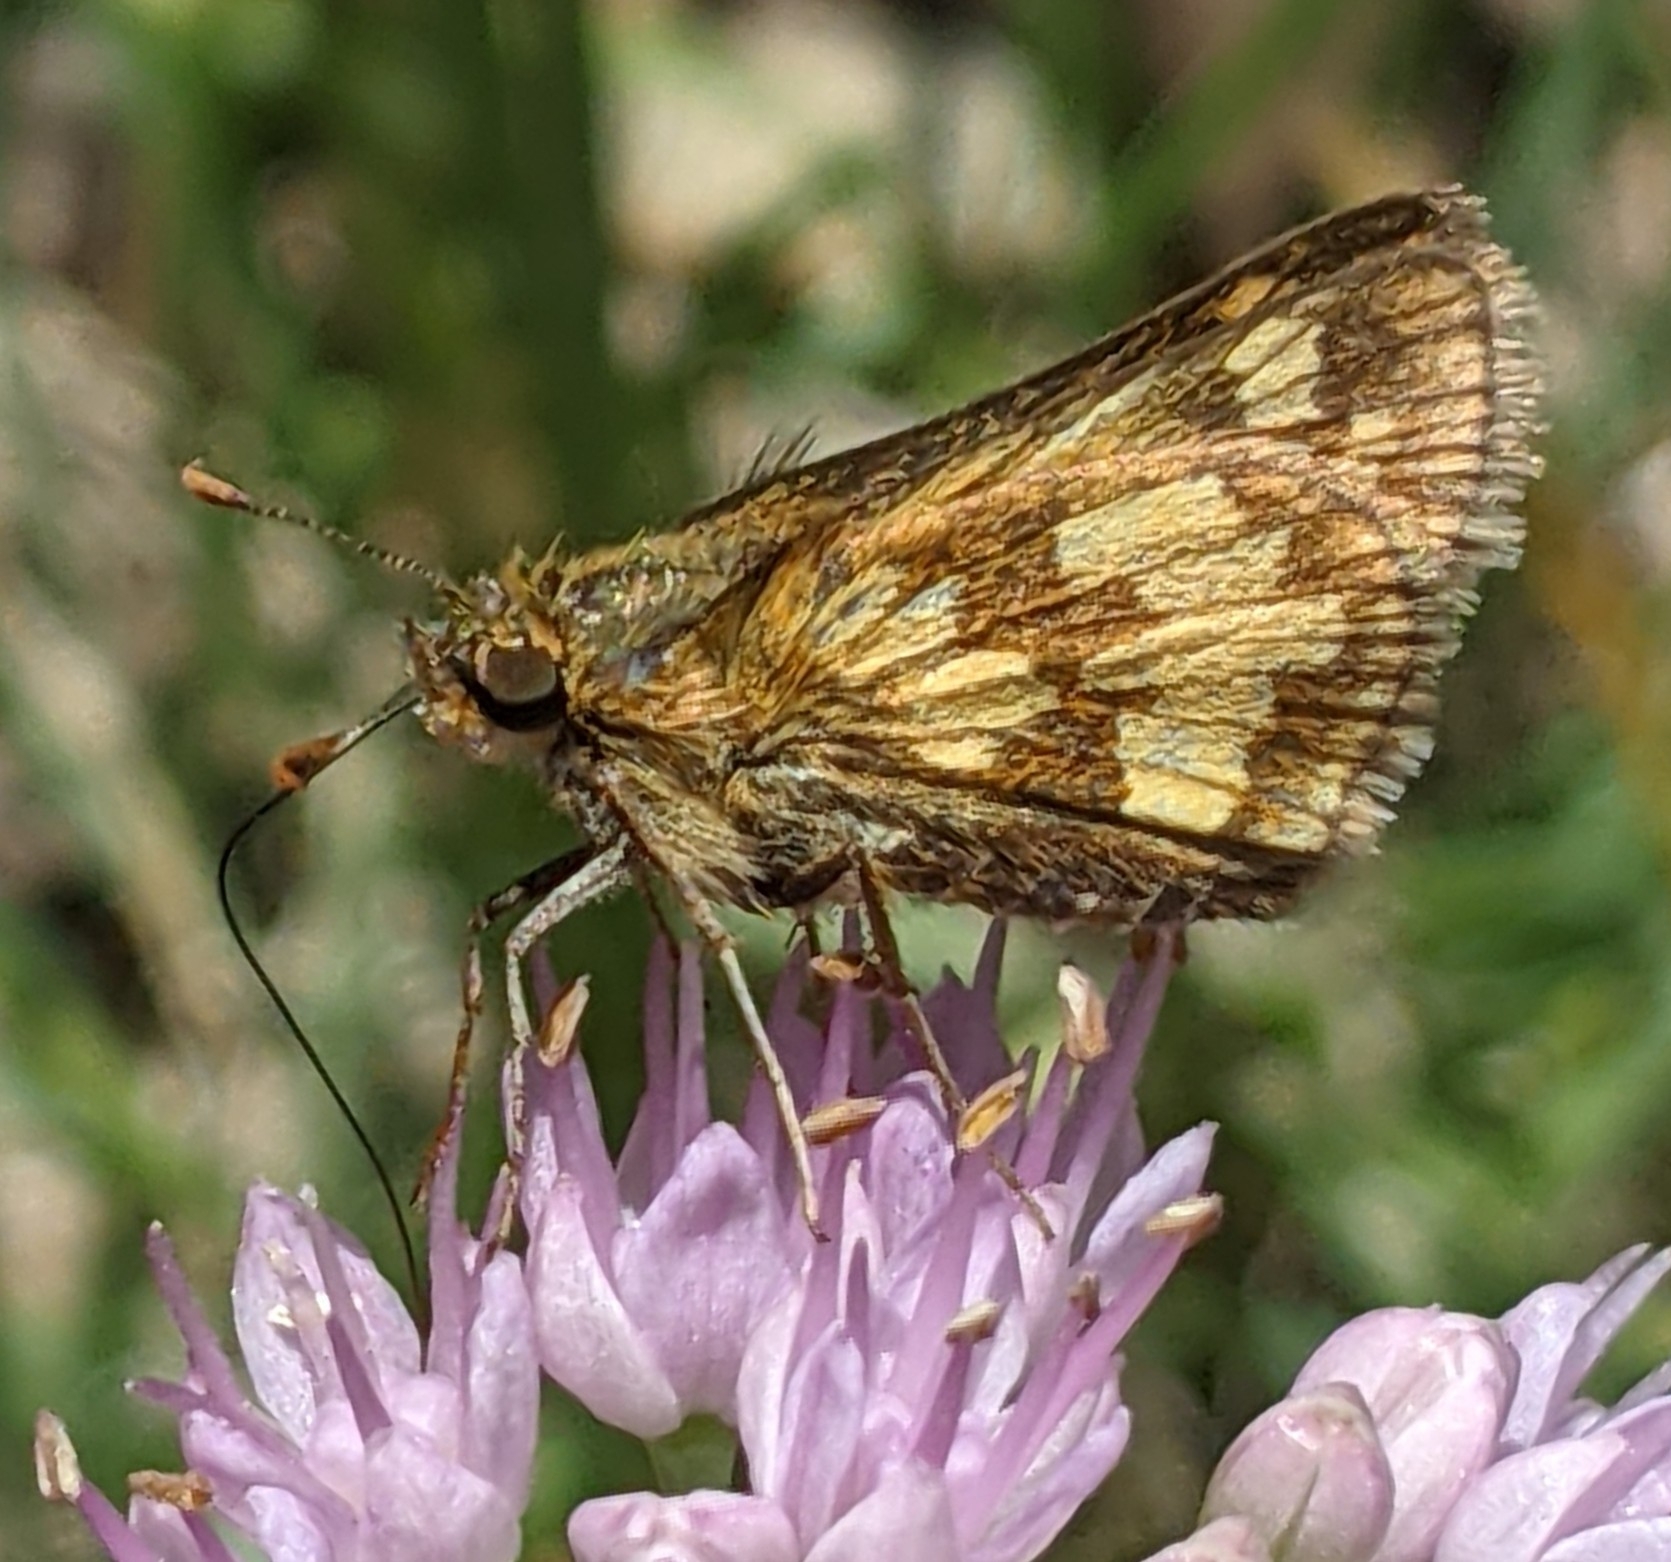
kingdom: Animalia
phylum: Arthropoda
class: Insecta
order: Lepidoptera
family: Hesperiidae
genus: Polites
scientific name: Polites coras
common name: Peck's skipper
